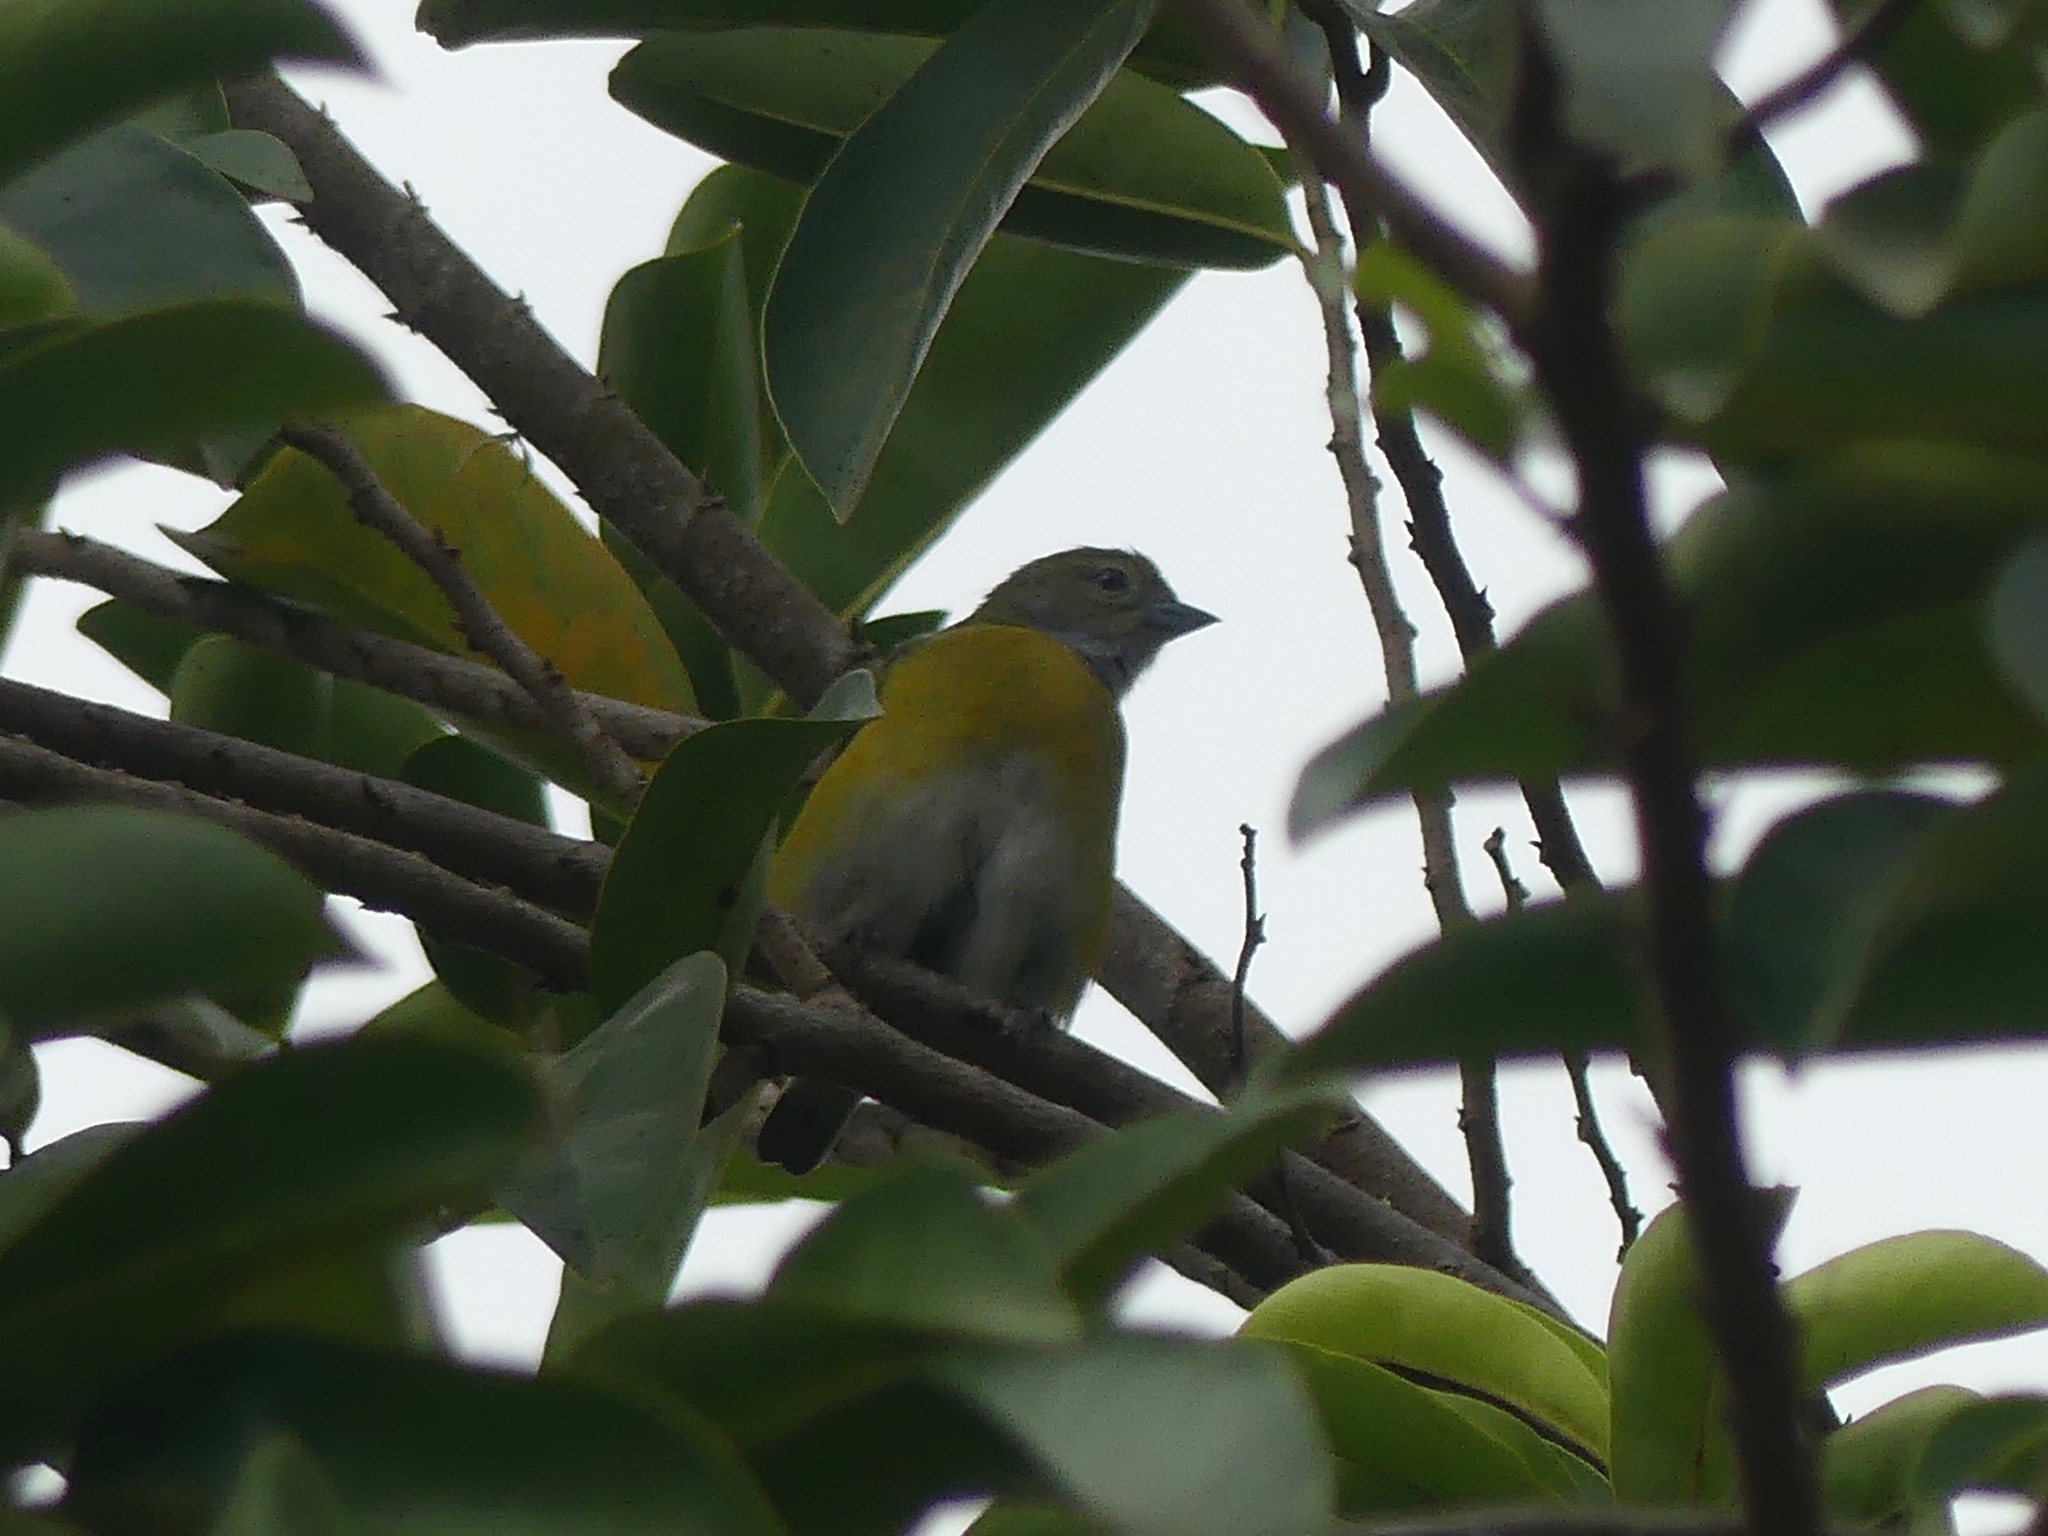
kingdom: Animalia
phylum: Chordata
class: Aves
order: Passeriformes
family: Fringillidae
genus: Euphonia
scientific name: Euphonia chlorotica
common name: Purple-throated euphonia
